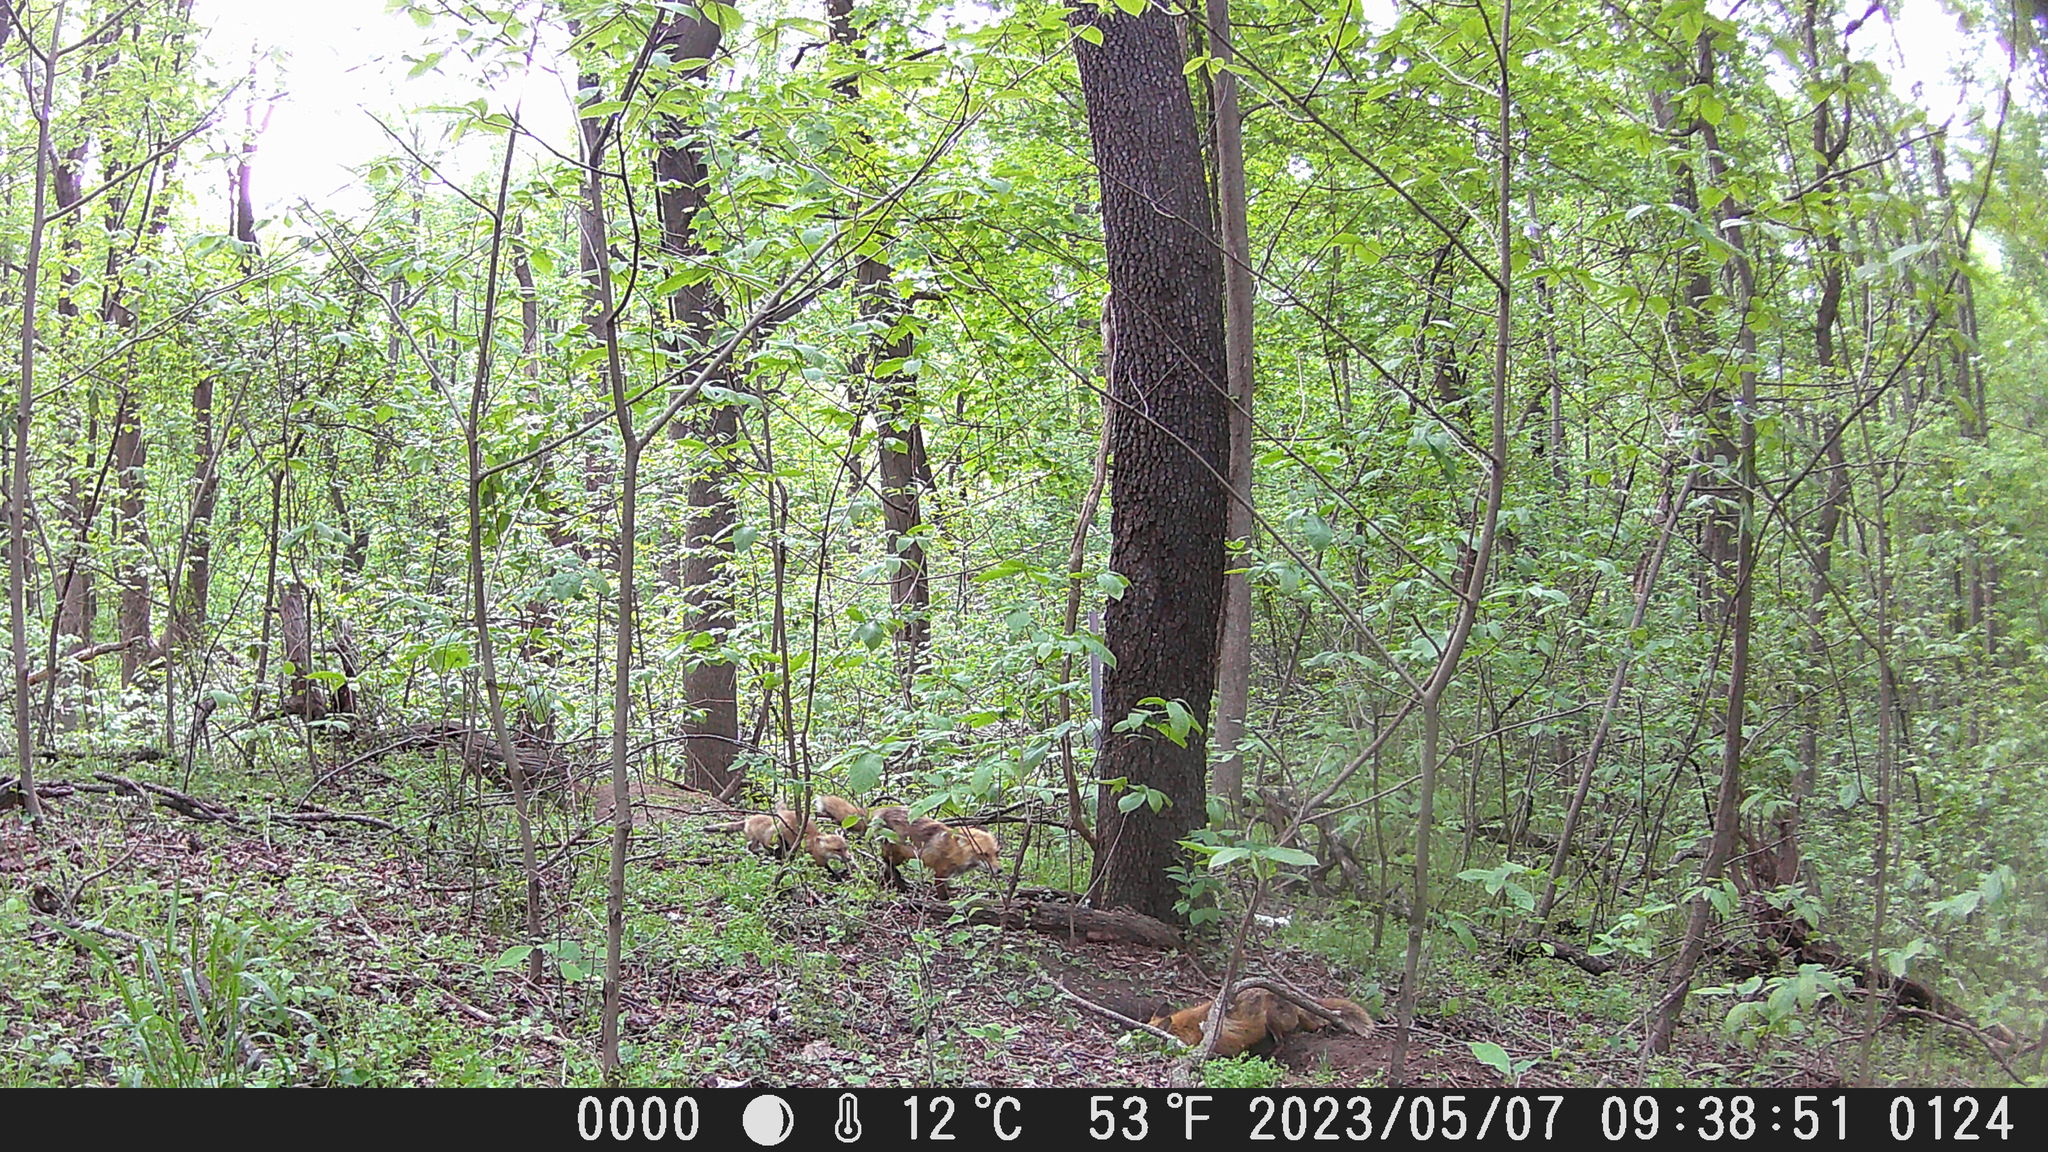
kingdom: Animalia
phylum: Chordata
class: Mammalia
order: Carnivora
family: Canidae
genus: Vulpes
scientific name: Vulpes vulpes
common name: Red fox
